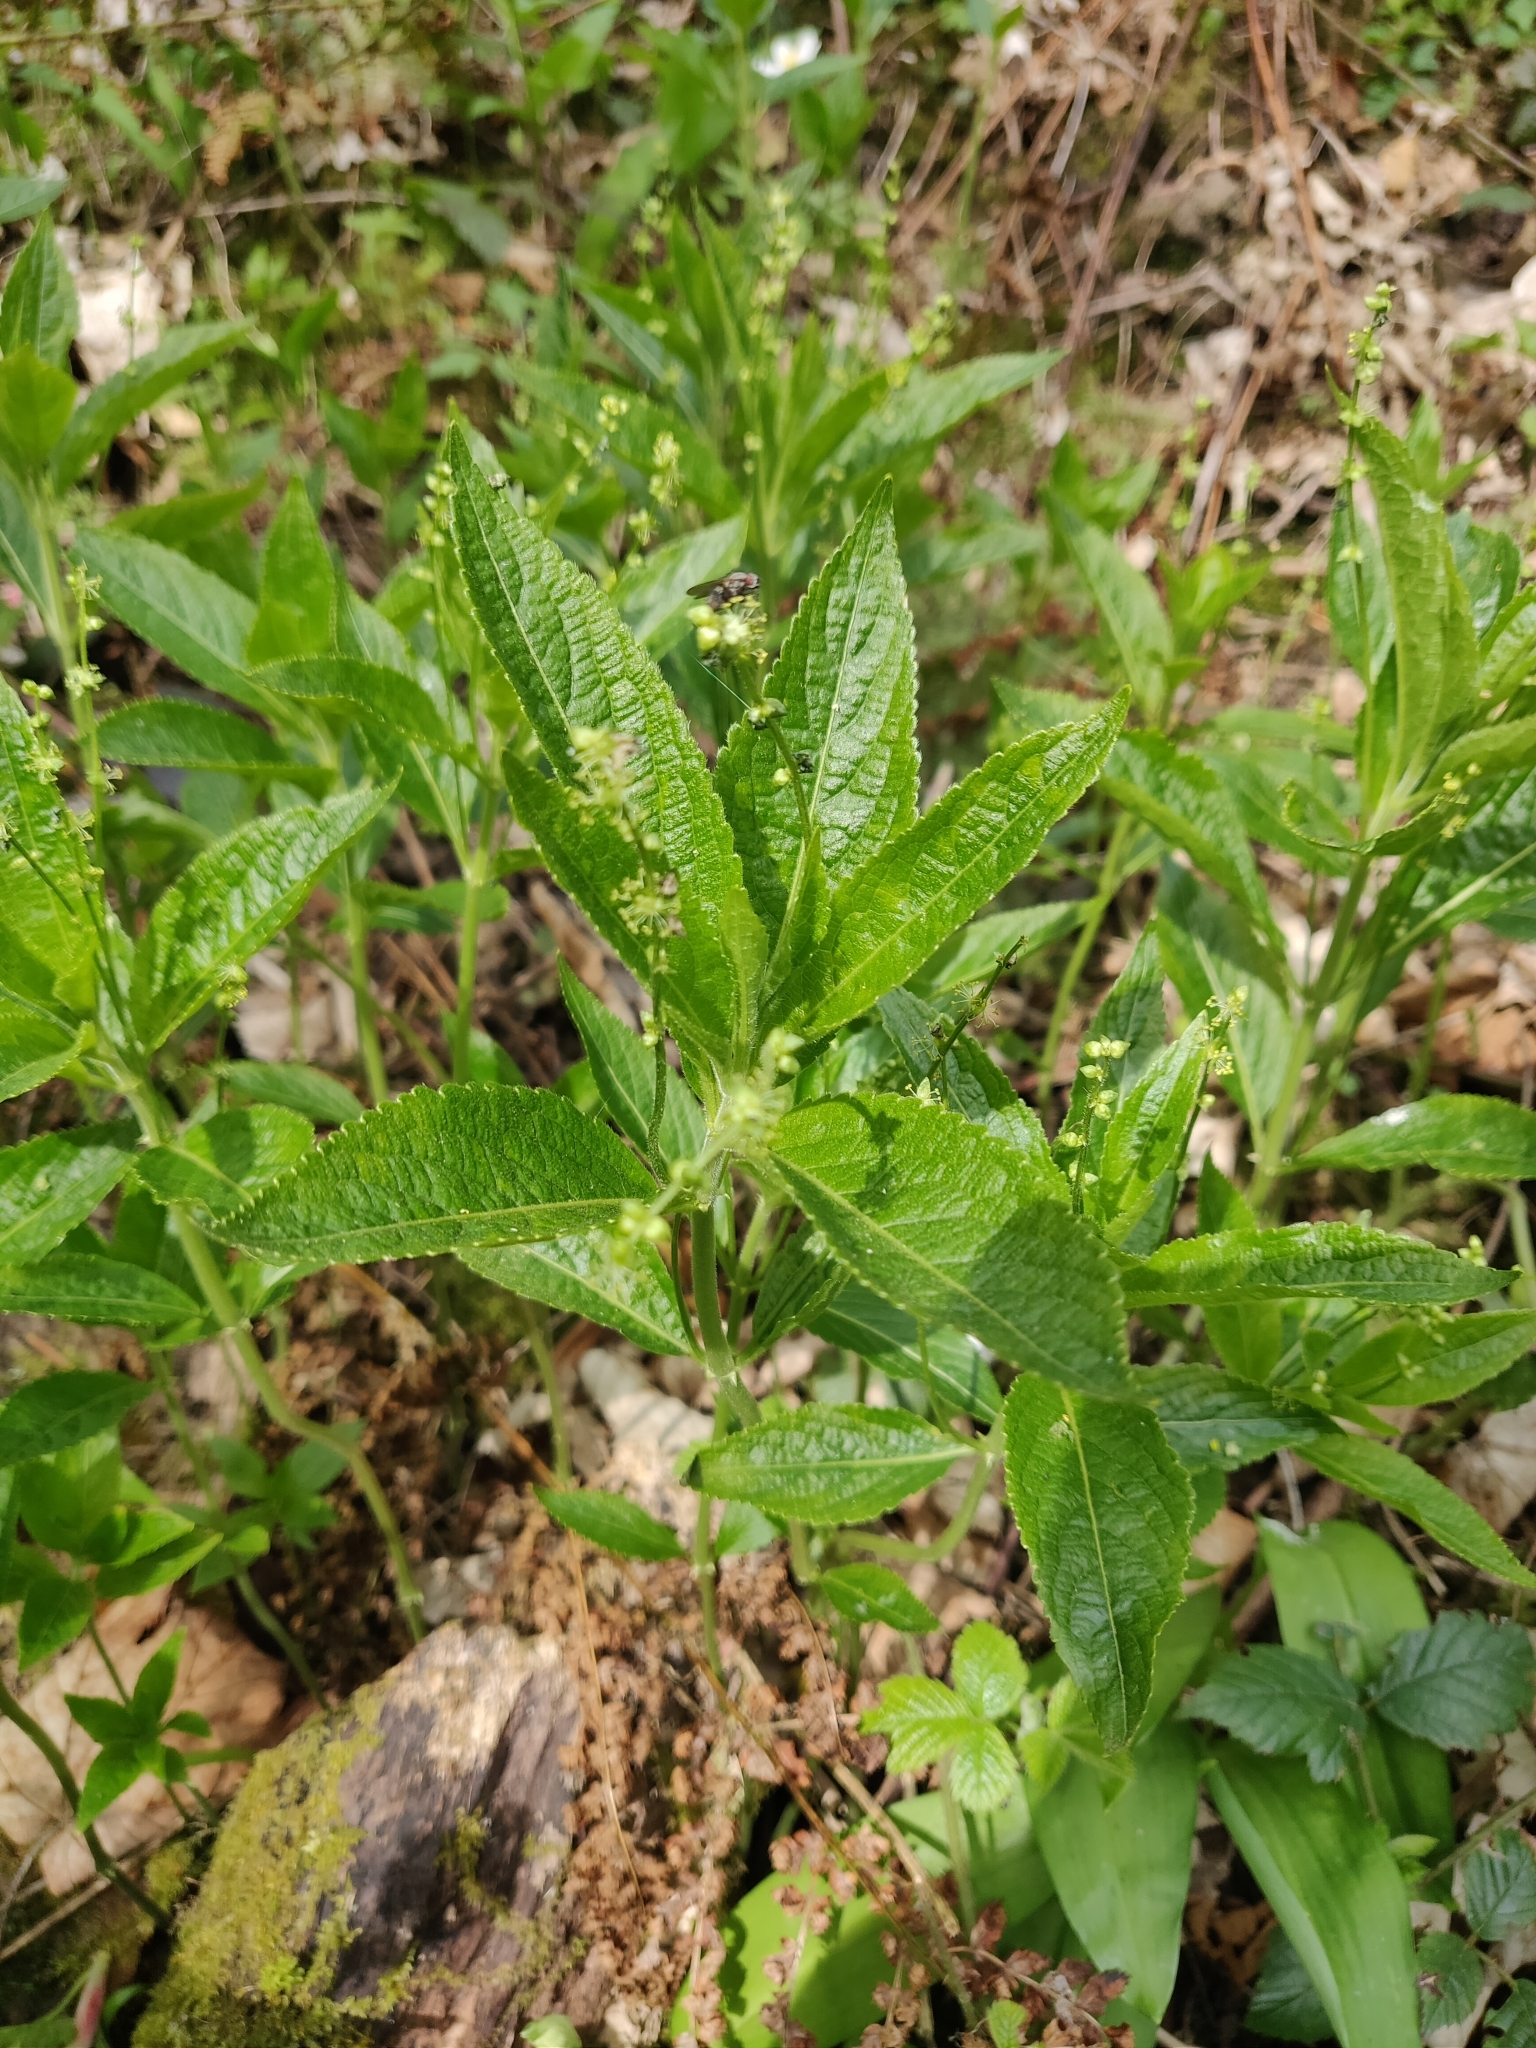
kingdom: Plantae
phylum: Tracheophyta
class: Magnoliopsida
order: Malpighiales
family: Euphorbiaceae
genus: Mercurialis
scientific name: Mercurialis perennis
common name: Dog mercury
